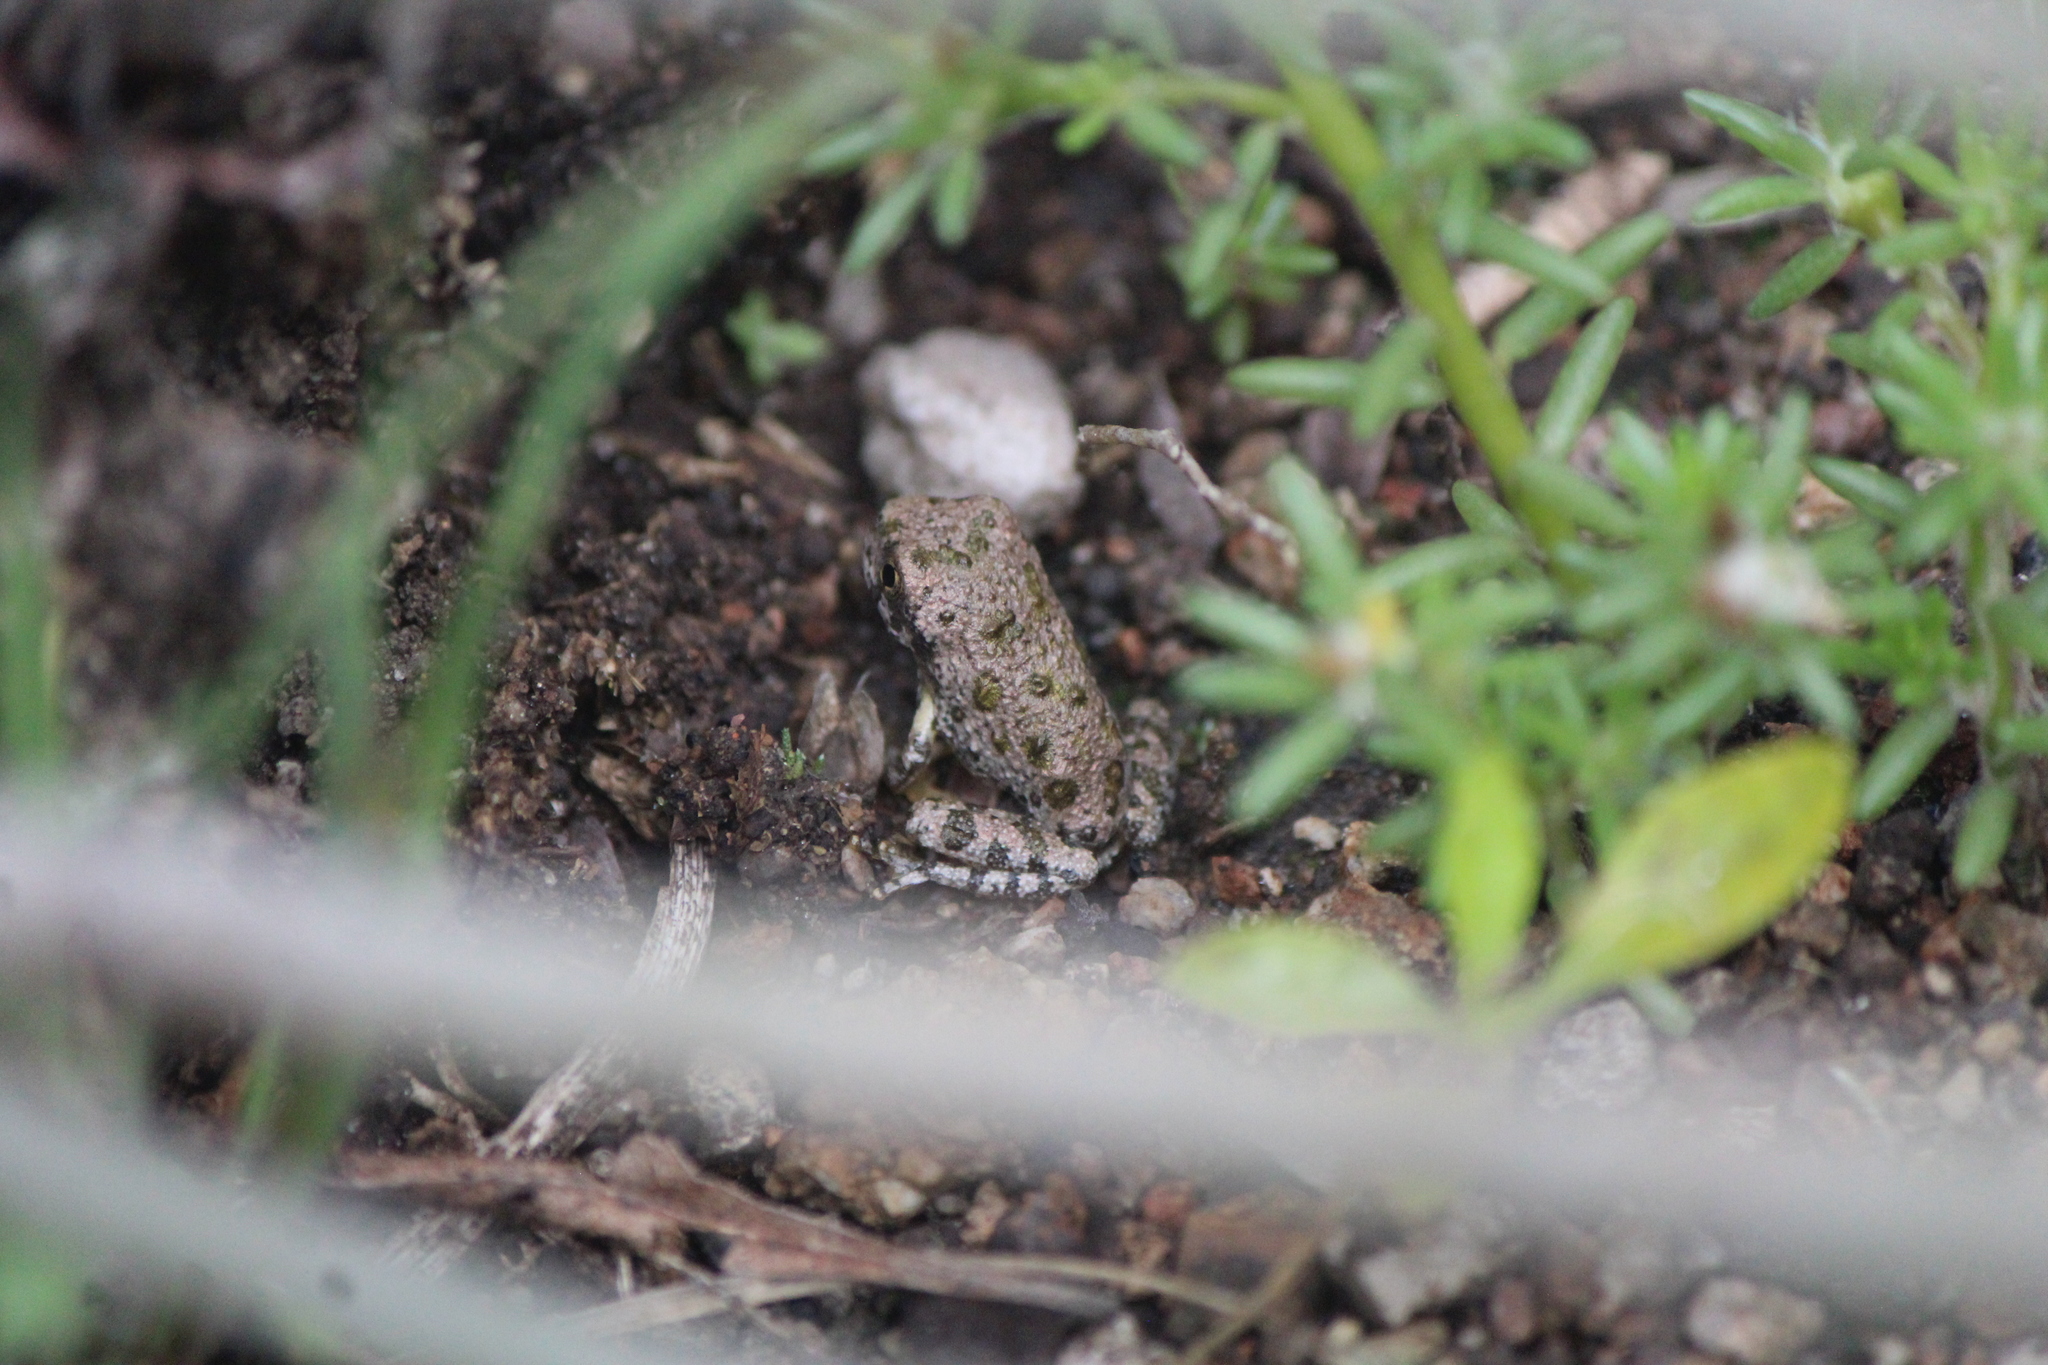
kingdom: Animalia
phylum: Chordata
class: Amphibia
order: Anura
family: Hylidae
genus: Dryophytes
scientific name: Dryophytes arenicolor
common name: Canyon treefrog
